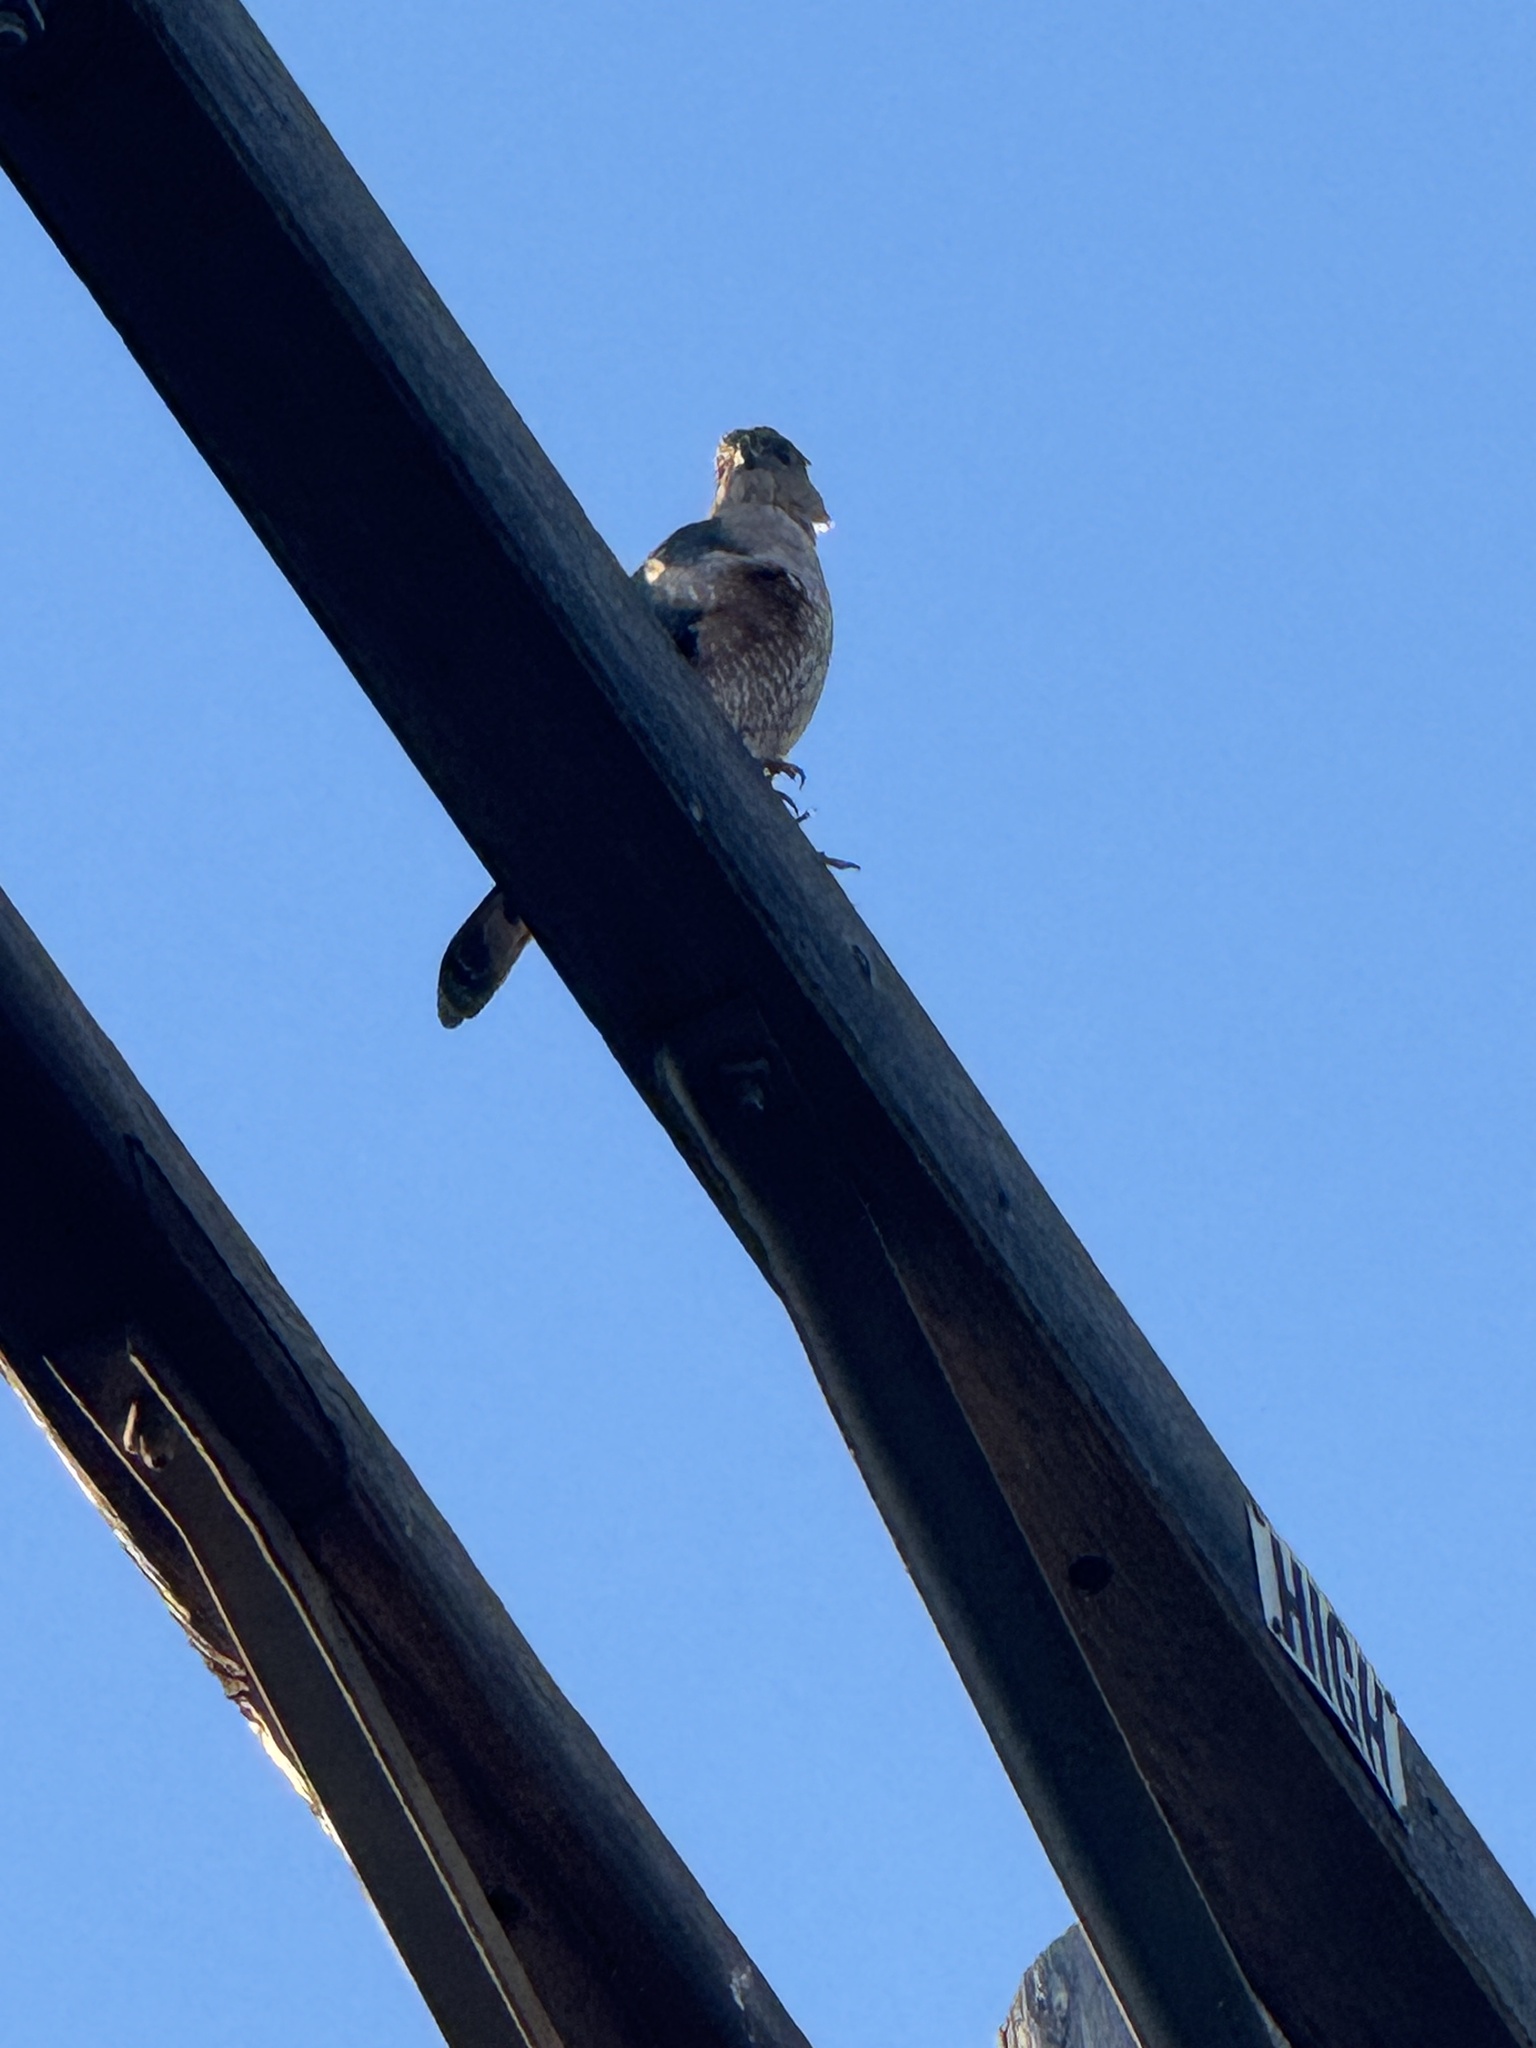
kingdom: Animalia
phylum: Chordata
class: Aves
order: Accipitriformes
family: Accipitridae
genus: Accipiter
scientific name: Accipiter cooperii
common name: Cooper's hawk
